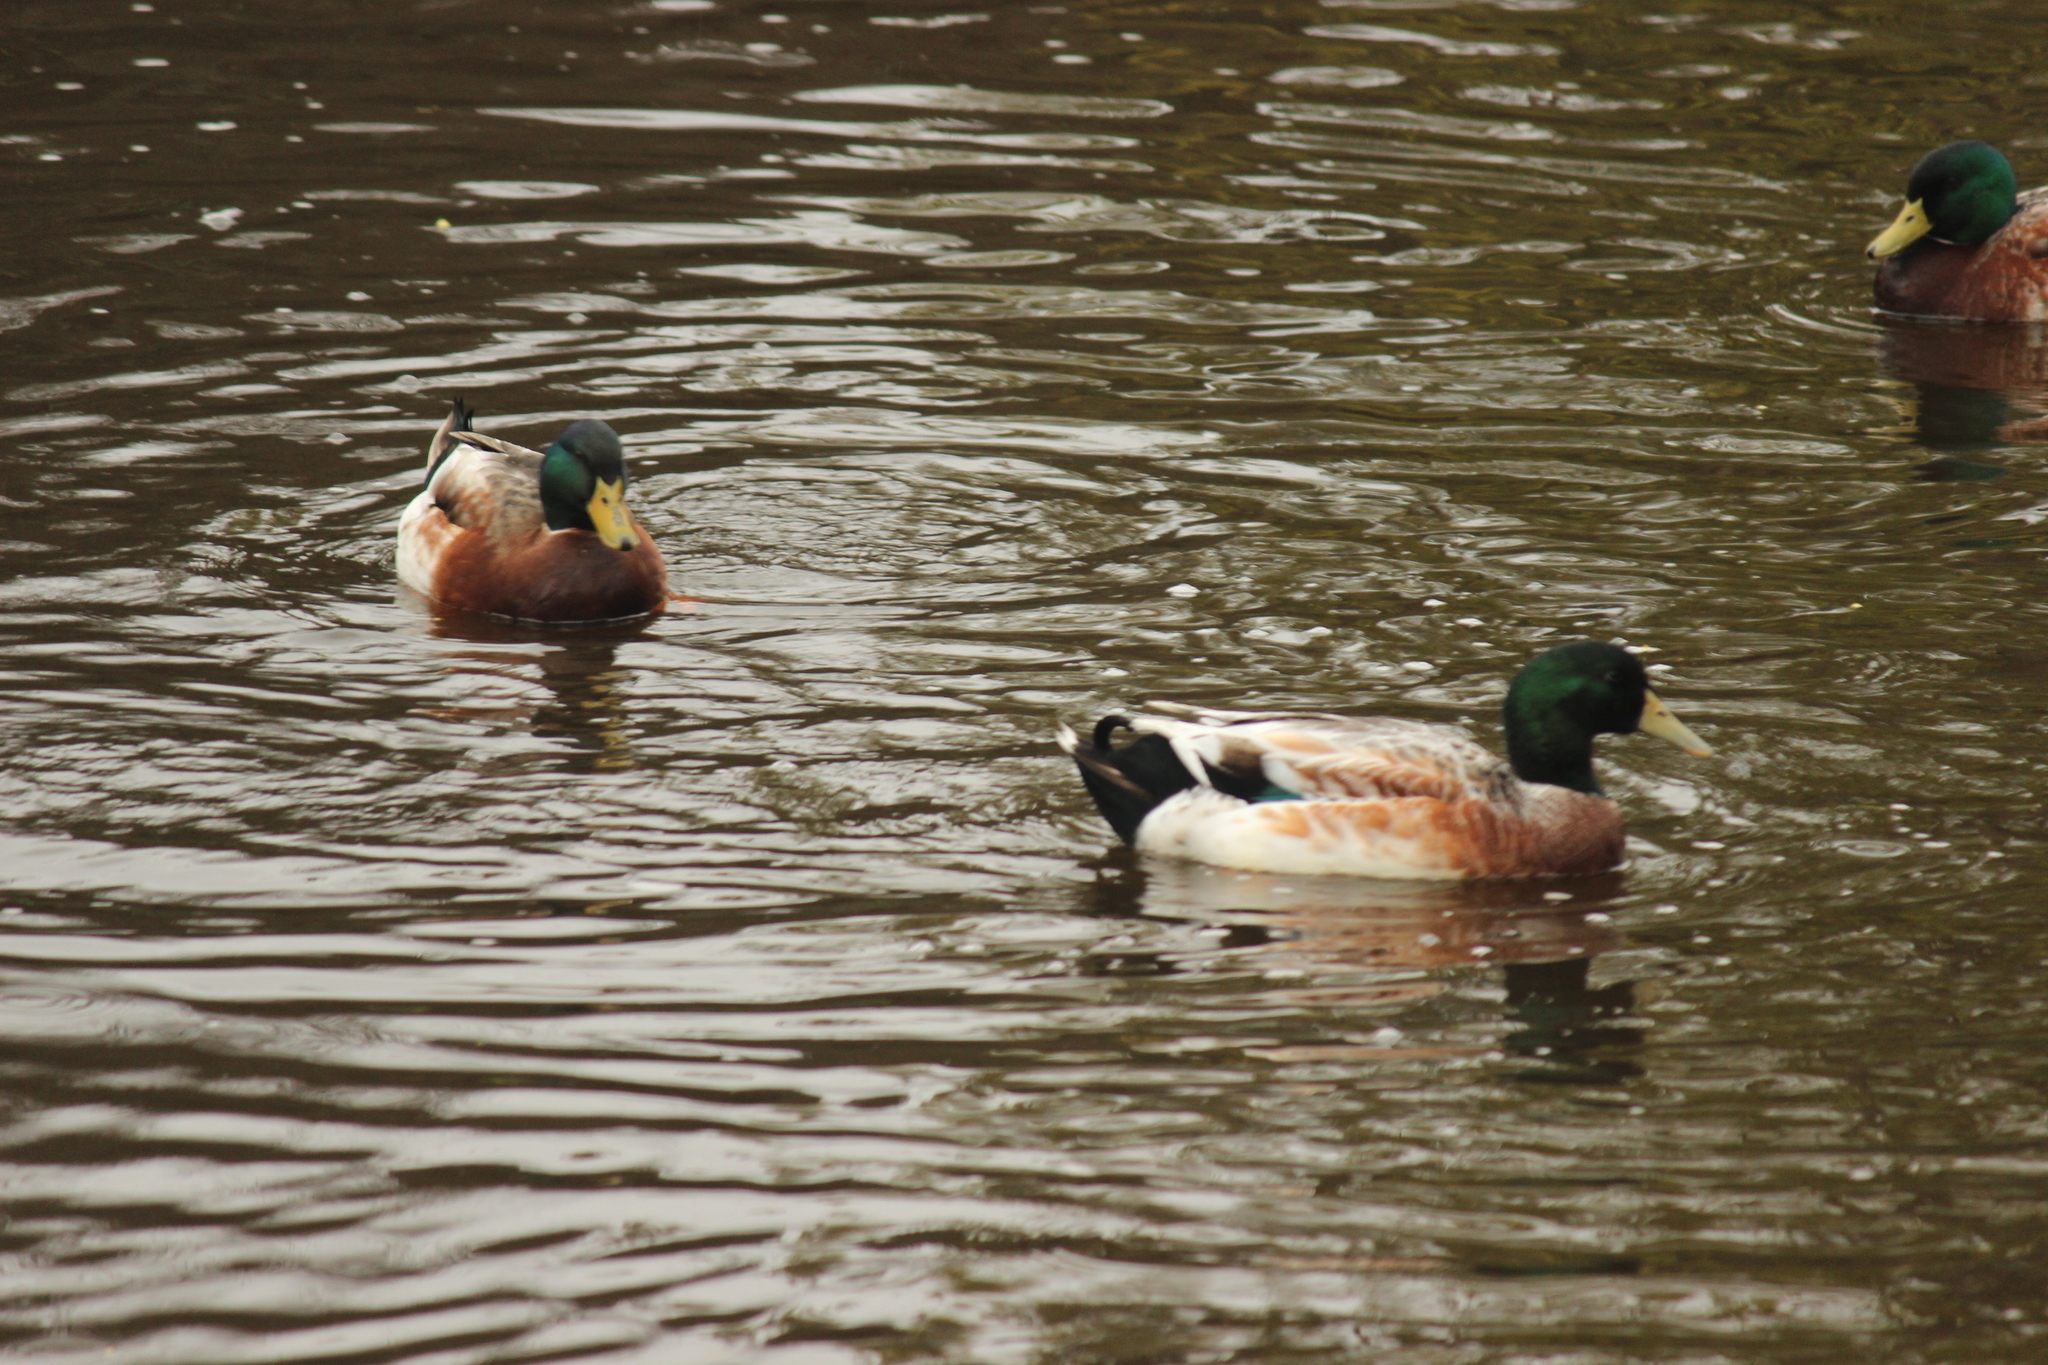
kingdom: Animalia
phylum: Chordata
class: Aves
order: Anseriformes
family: Anatidae
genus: Anas
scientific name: Anas platyrhynchos
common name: Mallard
